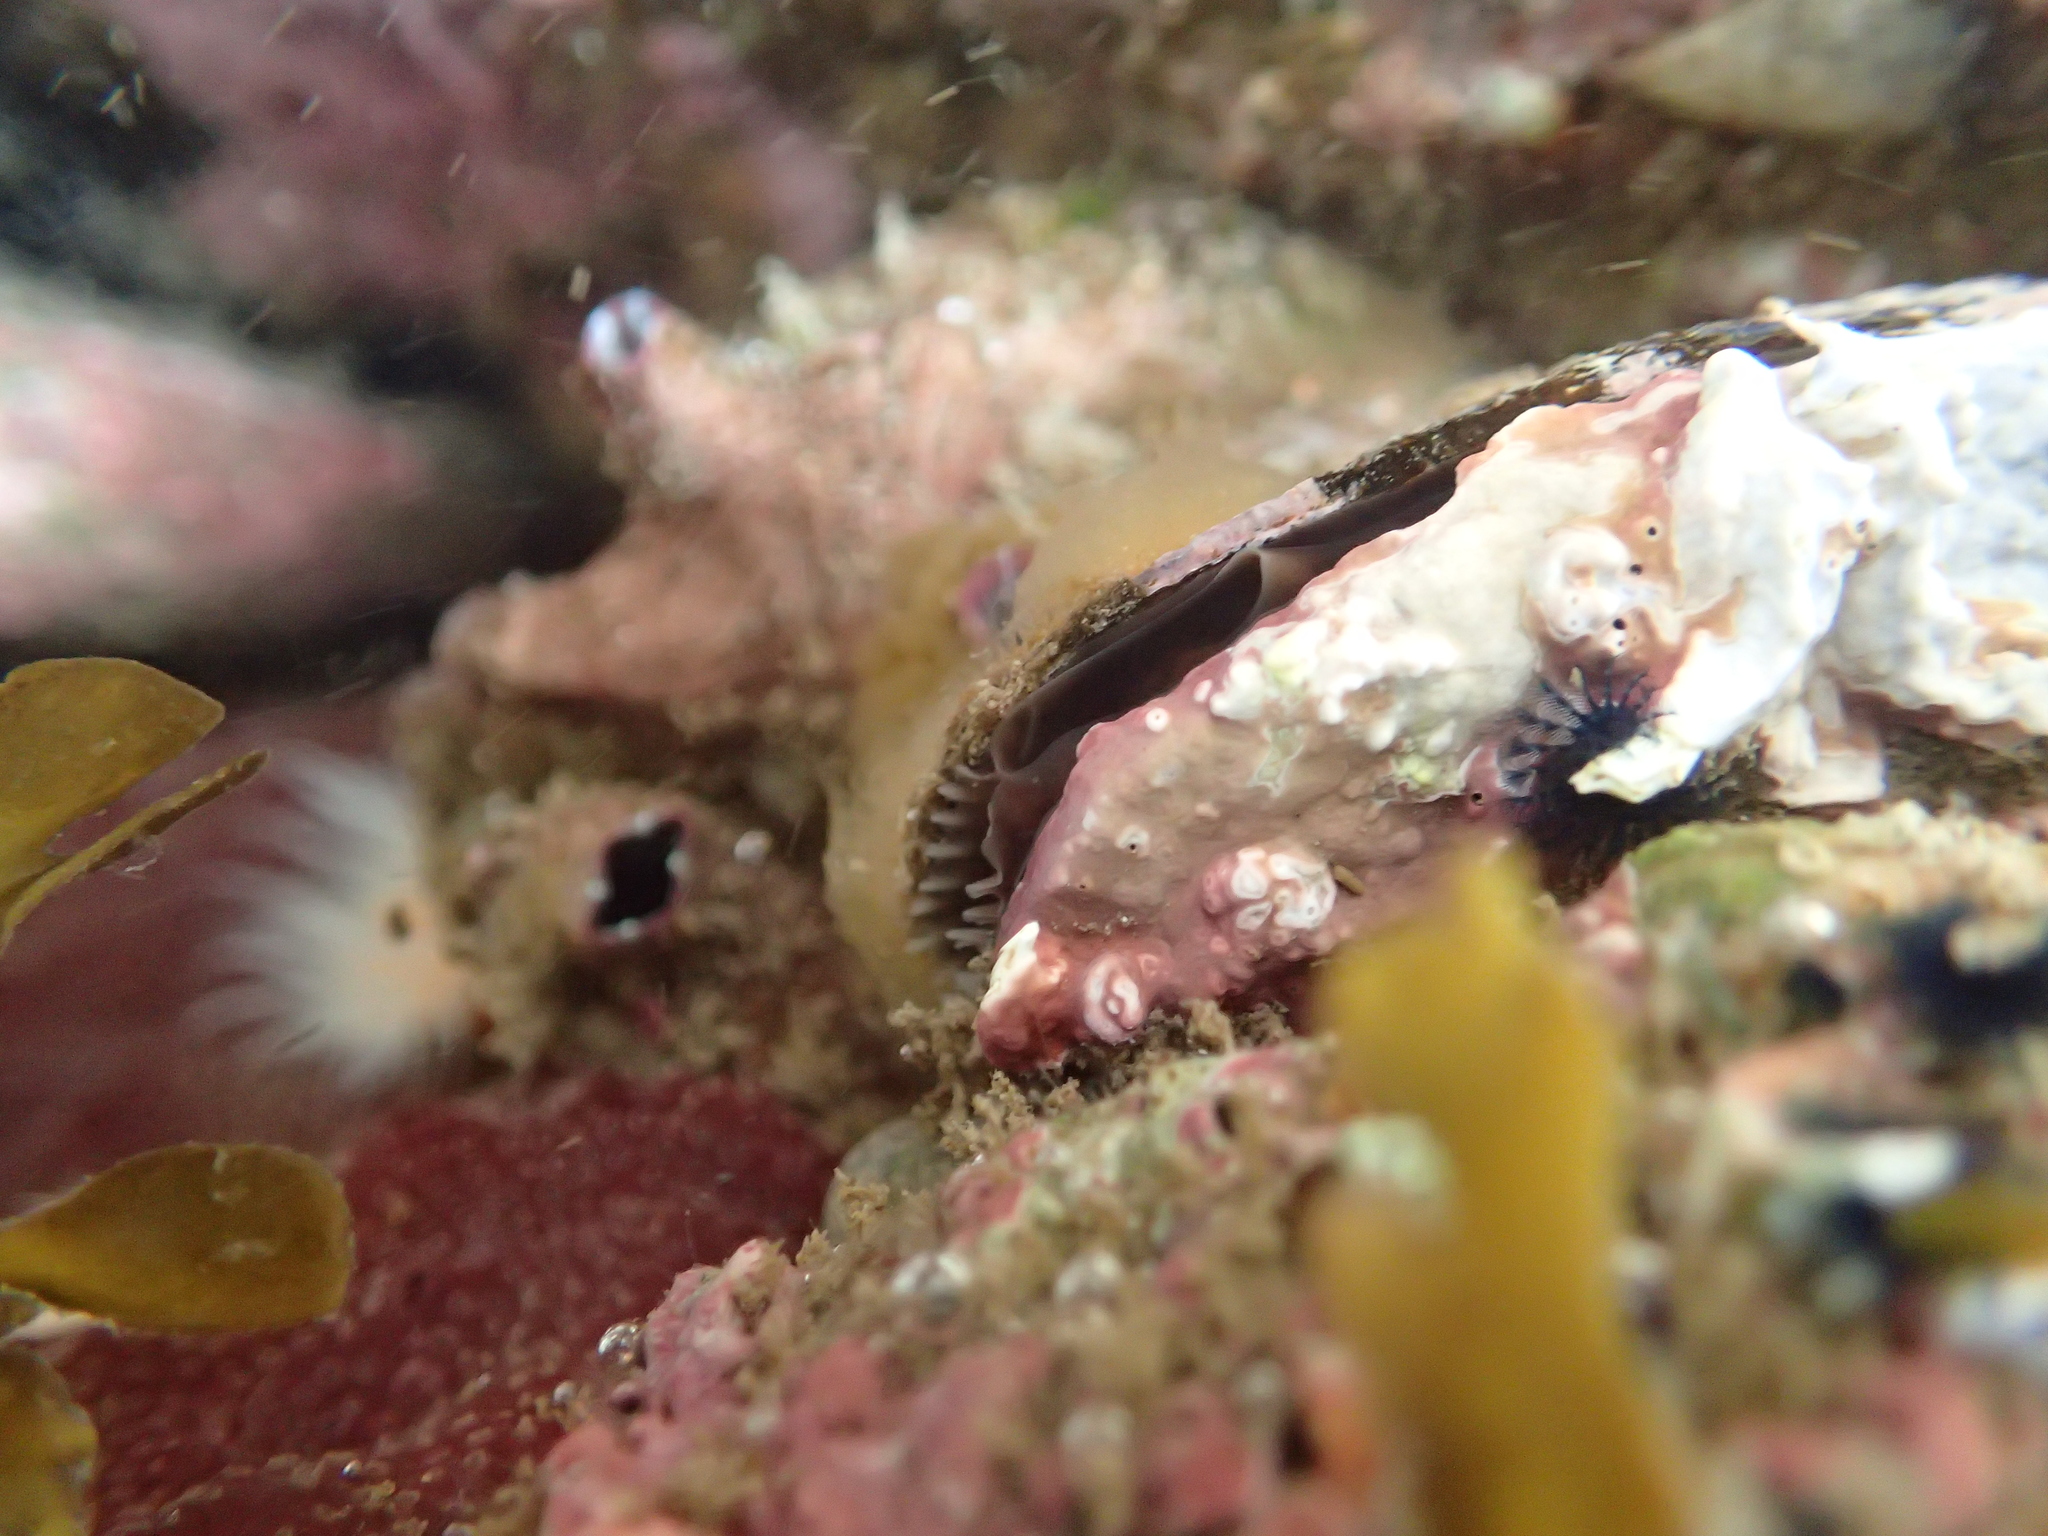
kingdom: Animalia
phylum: Mollusca
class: Bivalvia
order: Mytilida
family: Mytilidae
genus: Aulacomya
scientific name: Aulacomya maoriana
